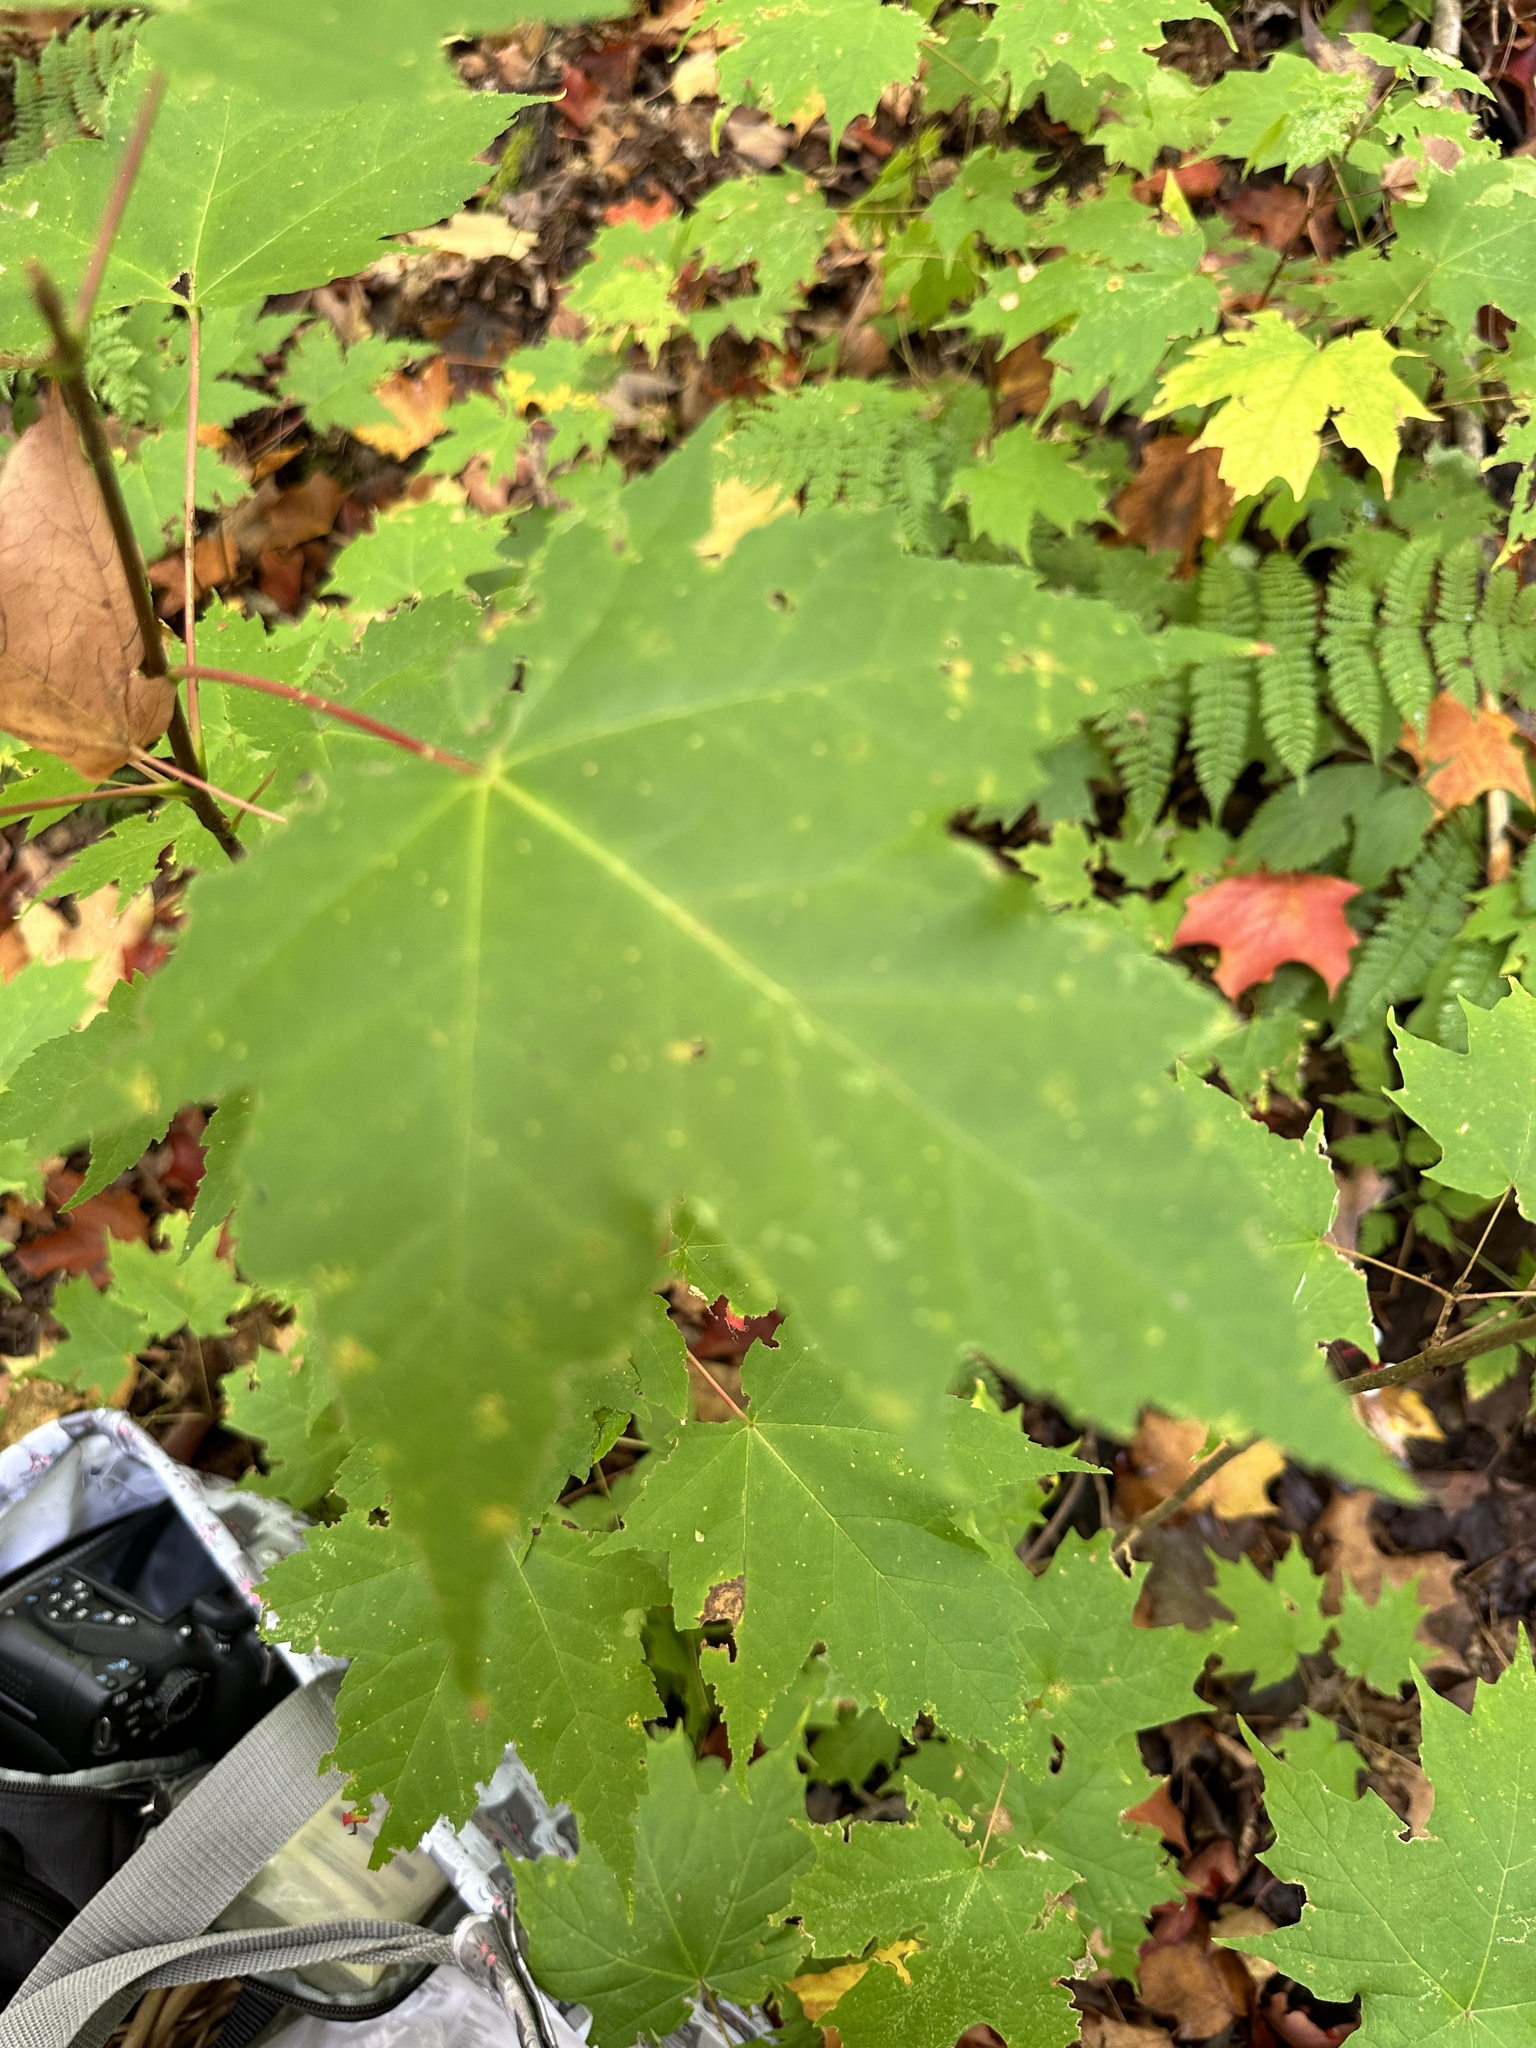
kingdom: Plantae
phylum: Tracheophyta
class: Magnoliopsida
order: Sapindales
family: Sapindaceae
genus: Acer
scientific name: Acer rubrum
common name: Red maple
